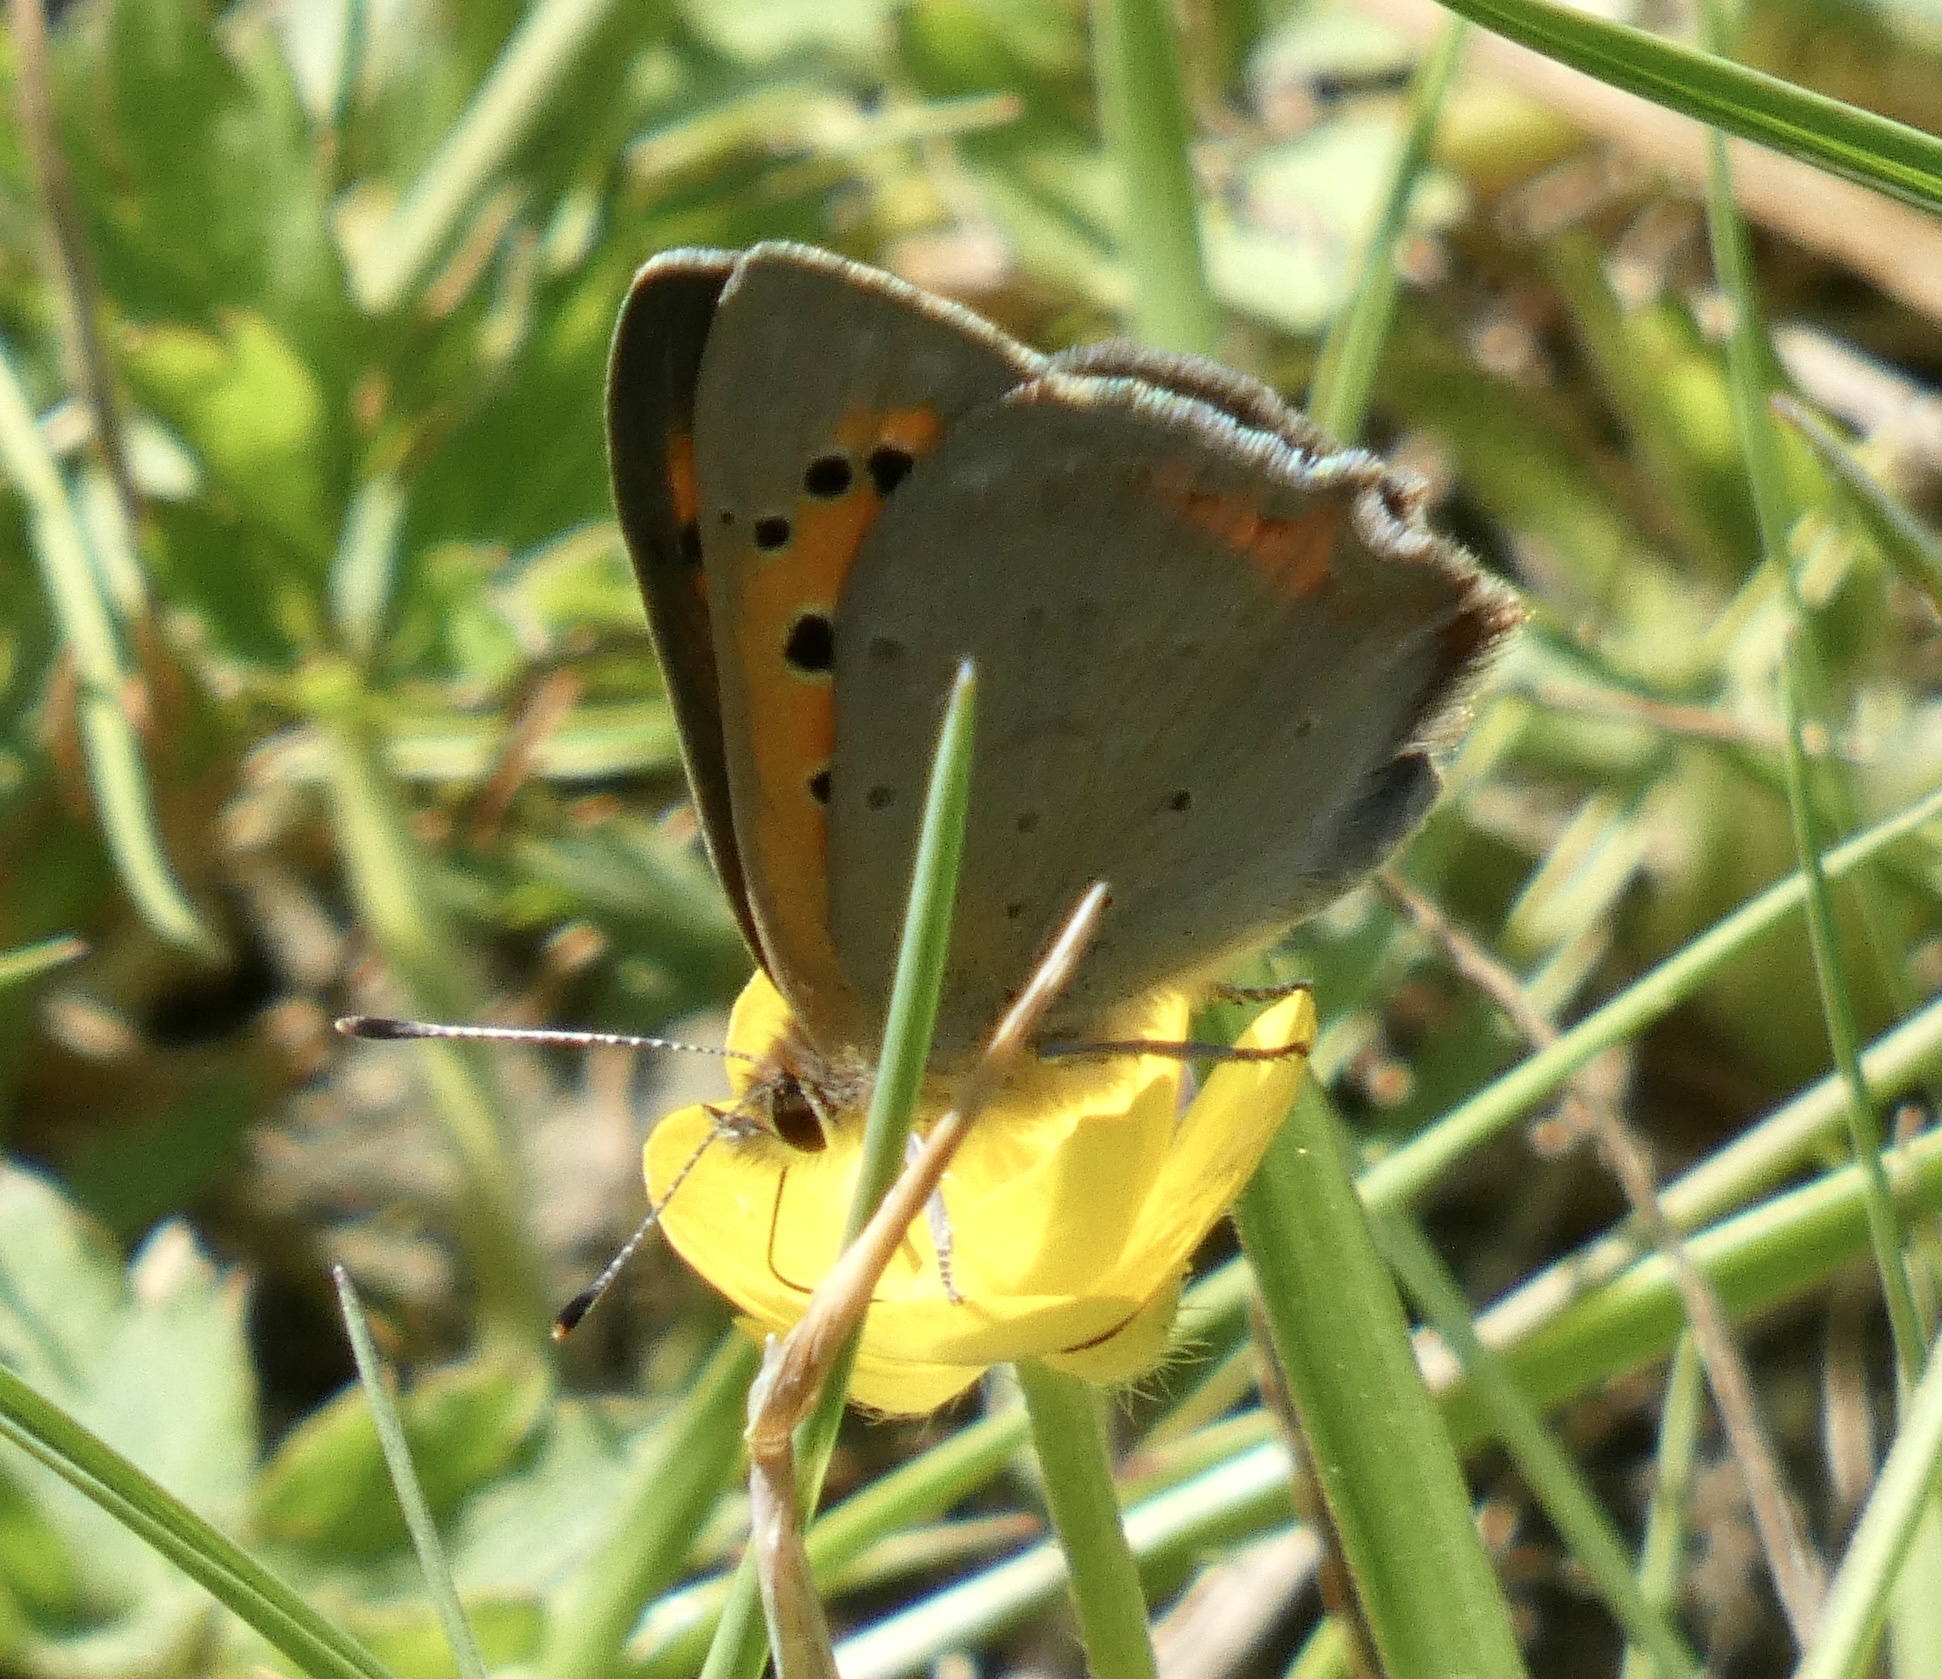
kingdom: Animalia
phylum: Arthropoda
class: Insecta
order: Lepidoptera
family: Lycaenidae
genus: Lycaena
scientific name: Lycaena phlaeas
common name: Small copper
